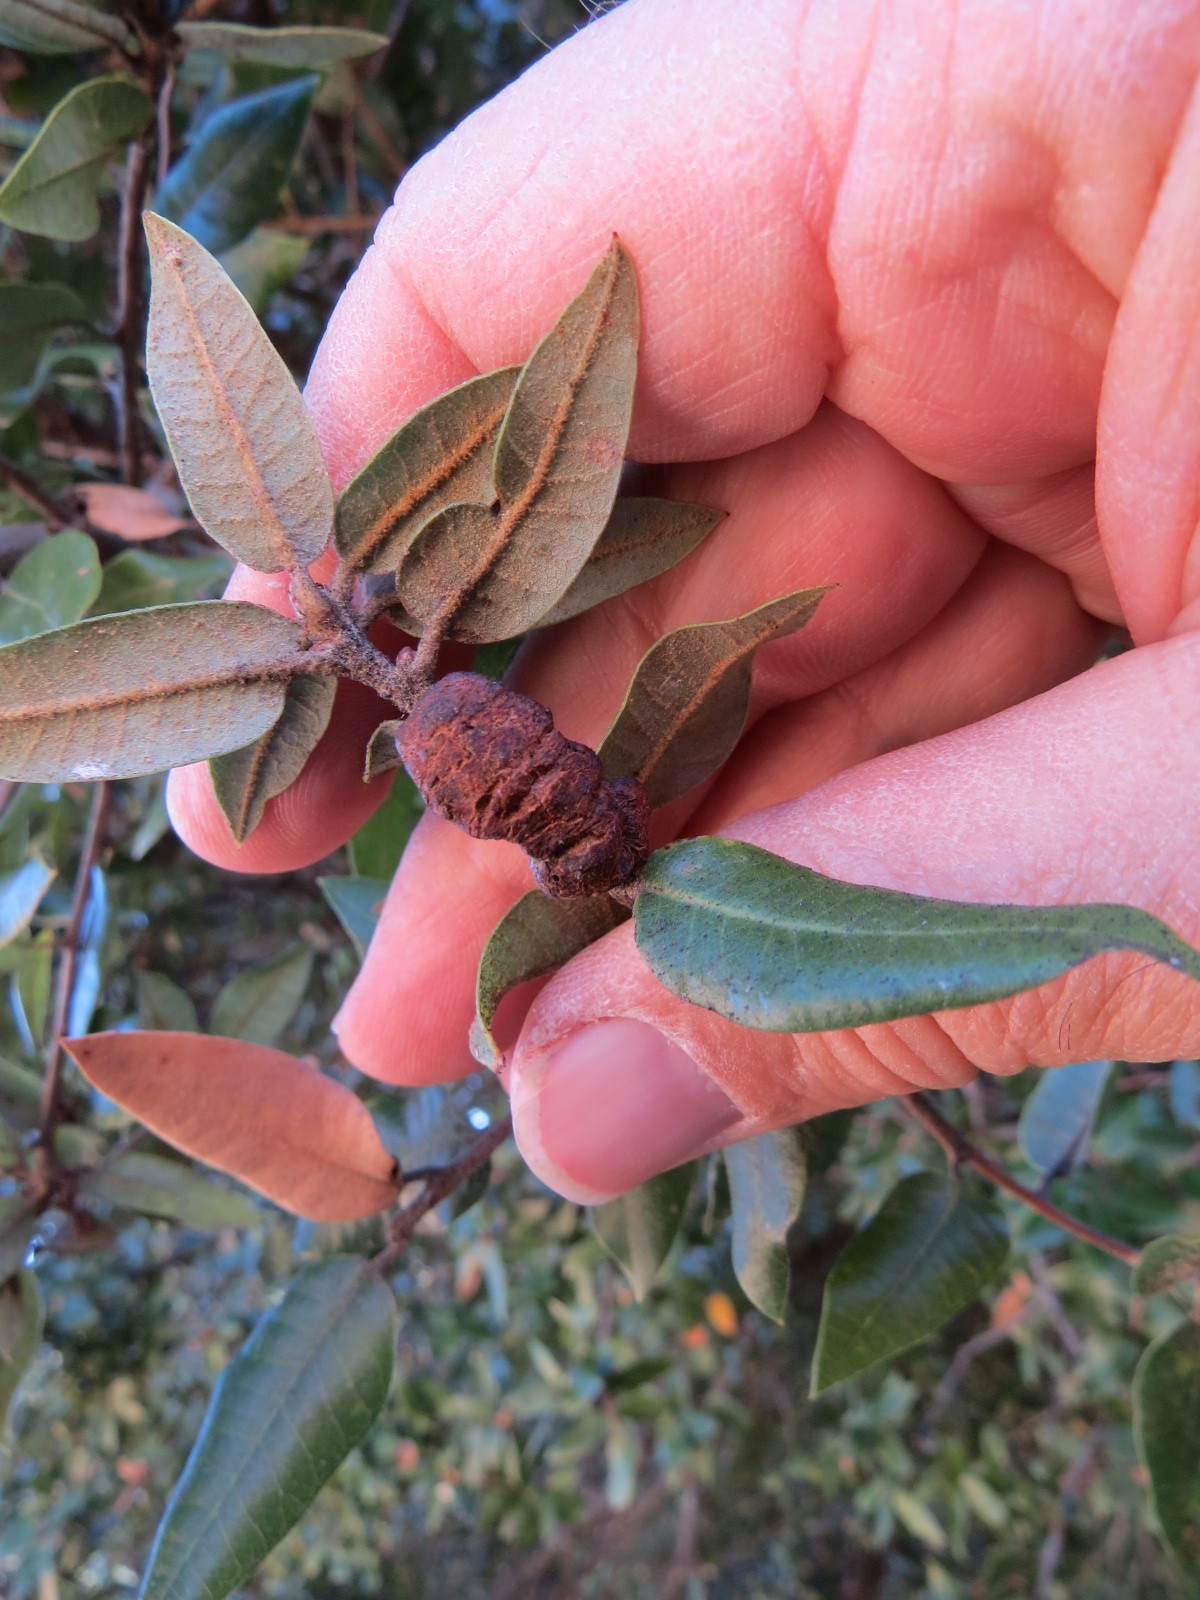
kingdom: Animalia
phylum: Arthropoda
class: Insecta
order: Hymenoptera
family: Cynipidae
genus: Disholandricus
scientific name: Disholandricus
